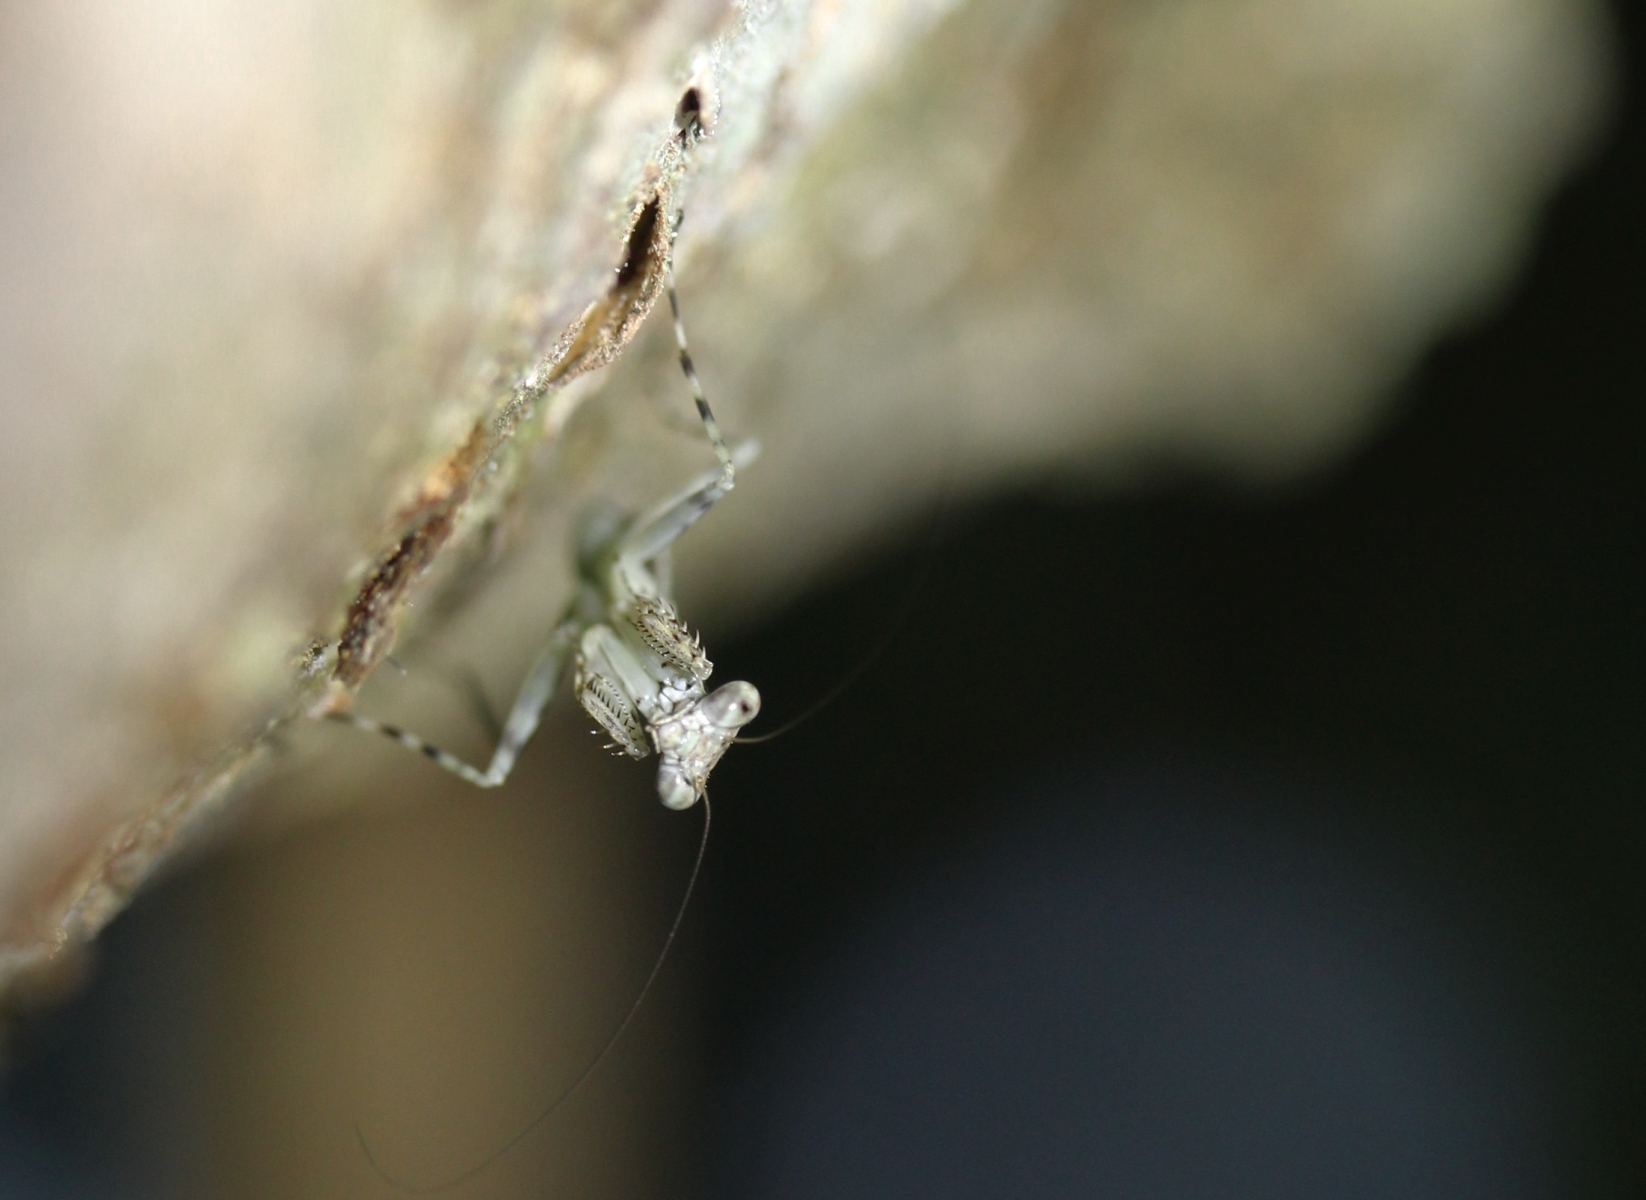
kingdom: Animalia
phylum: Arthropoda
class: Insecta
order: Mantodea
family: Liturgusidae
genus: Liturgusa
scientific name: Liturgusa
